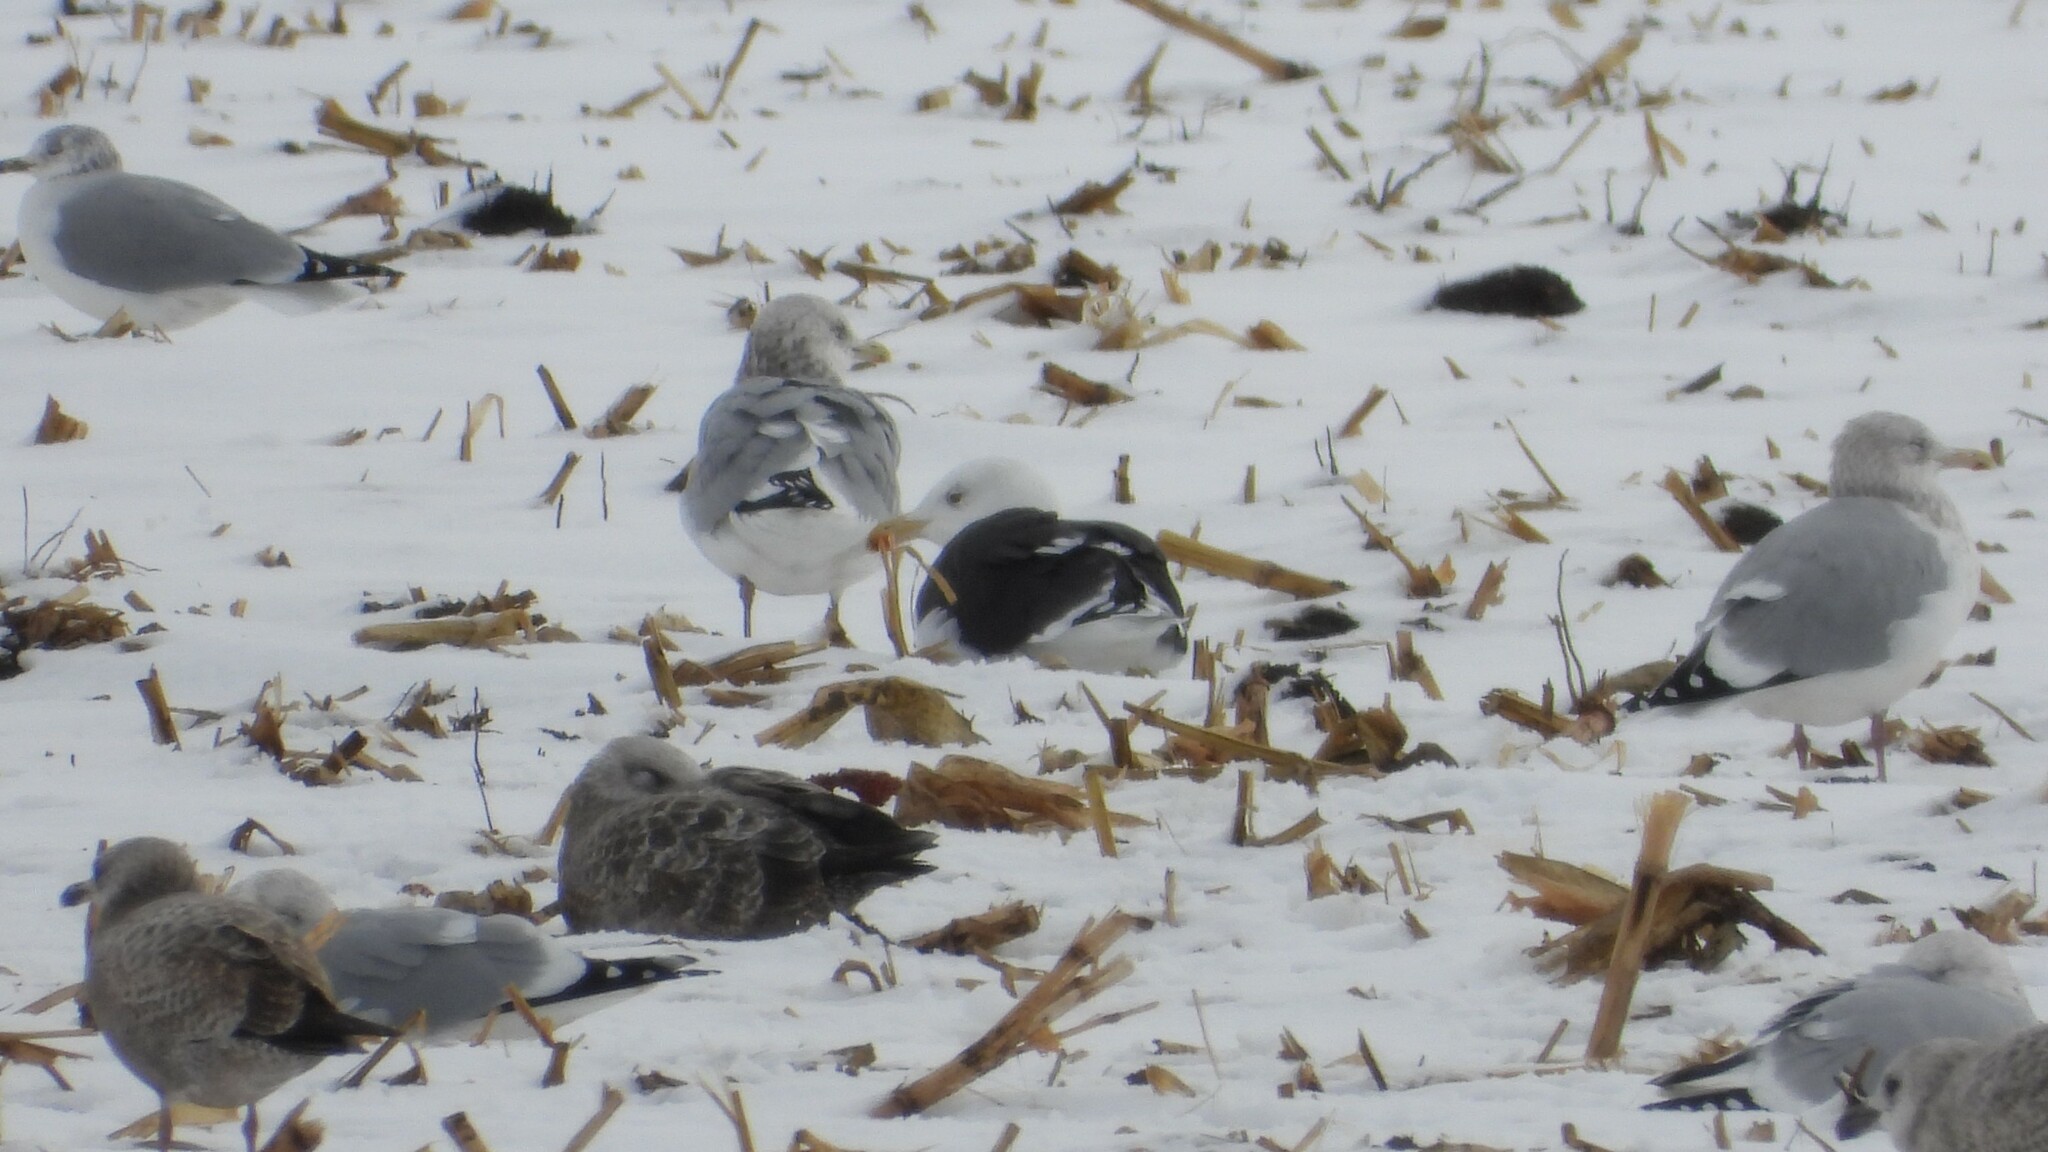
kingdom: Animalia
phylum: Chordata
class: Aves
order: Charadriiformes
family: Laridae
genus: Larus
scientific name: Larus marinus
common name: Great black-backed gull
